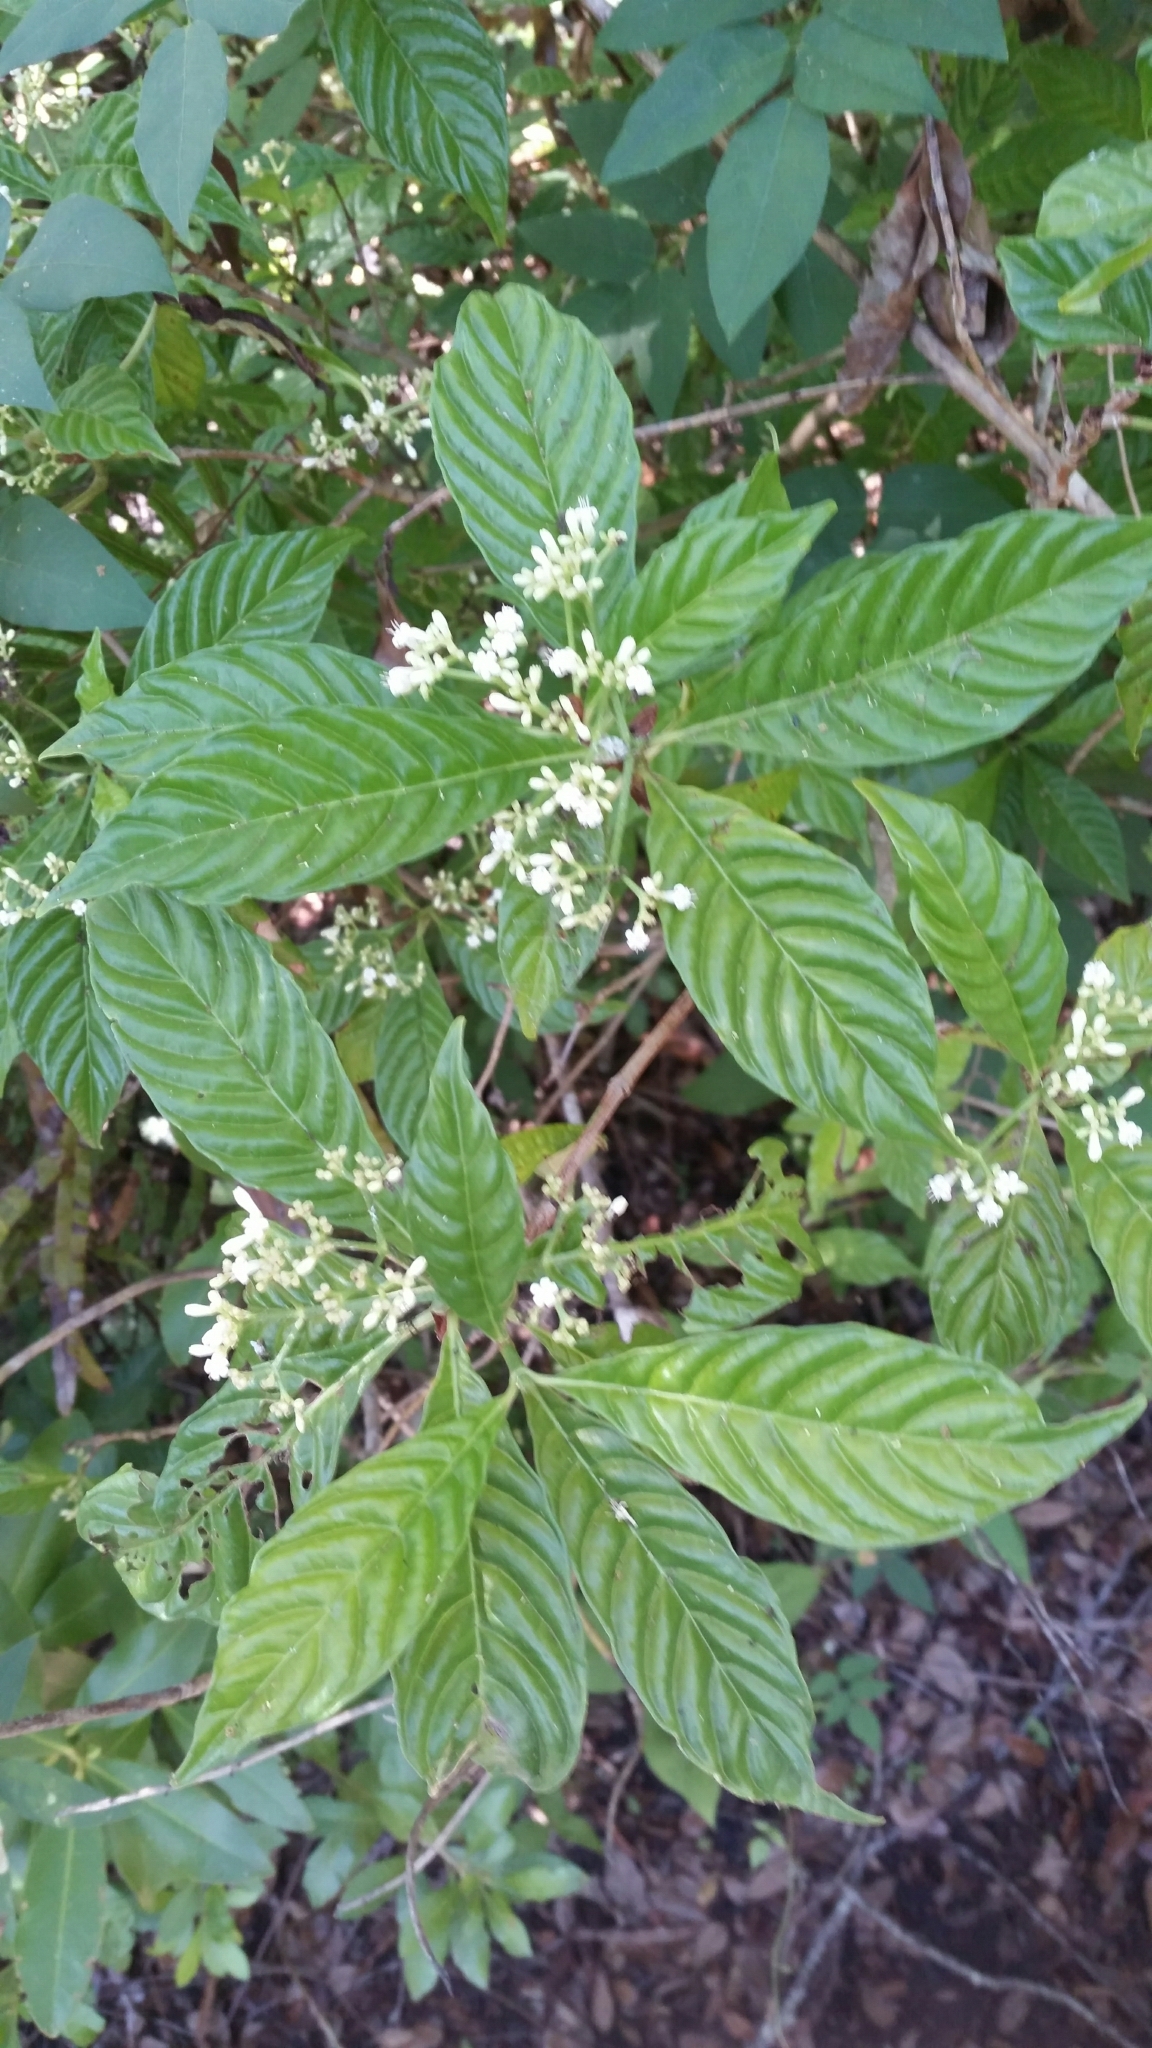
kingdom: Plantae
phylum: Tracheophyta
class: Magnoliopsida
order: Gentianales
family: Rubiaceae
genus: Psychotria
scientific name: Psychotria nervosa
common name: Bastard cankerberry
